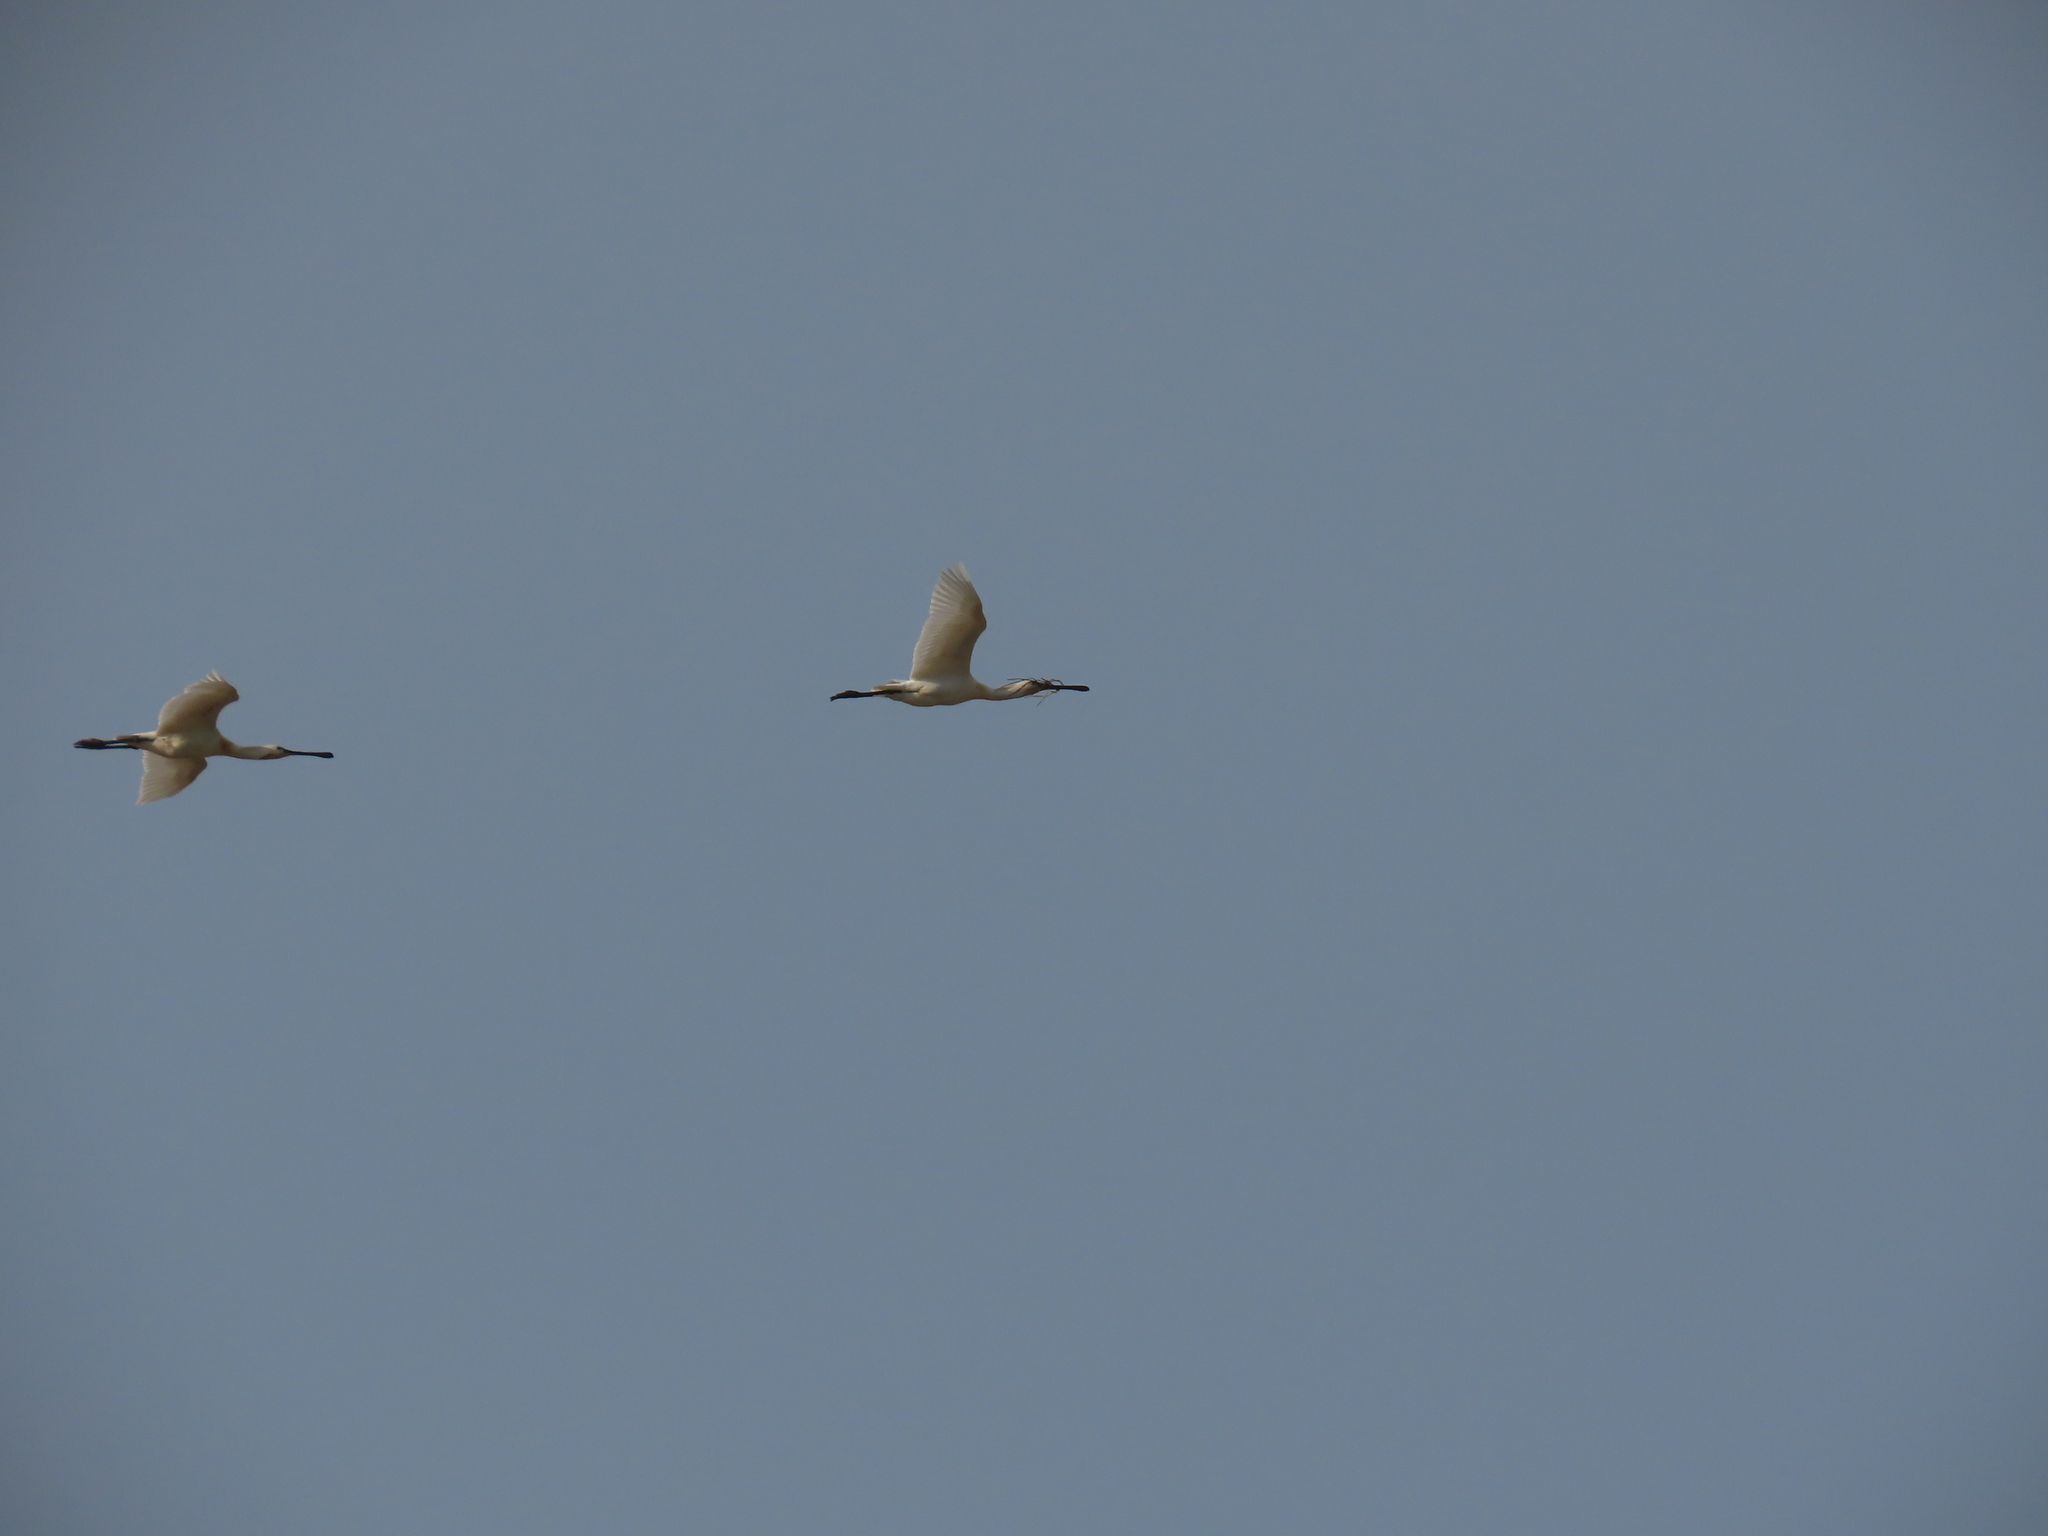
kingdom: Animalia
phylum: Chordata
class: Aves
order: Pelecaniformes
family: Threskiornithidae
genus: Platalea
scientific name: Platalea leucorodia
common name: Eurasian spoonbill
